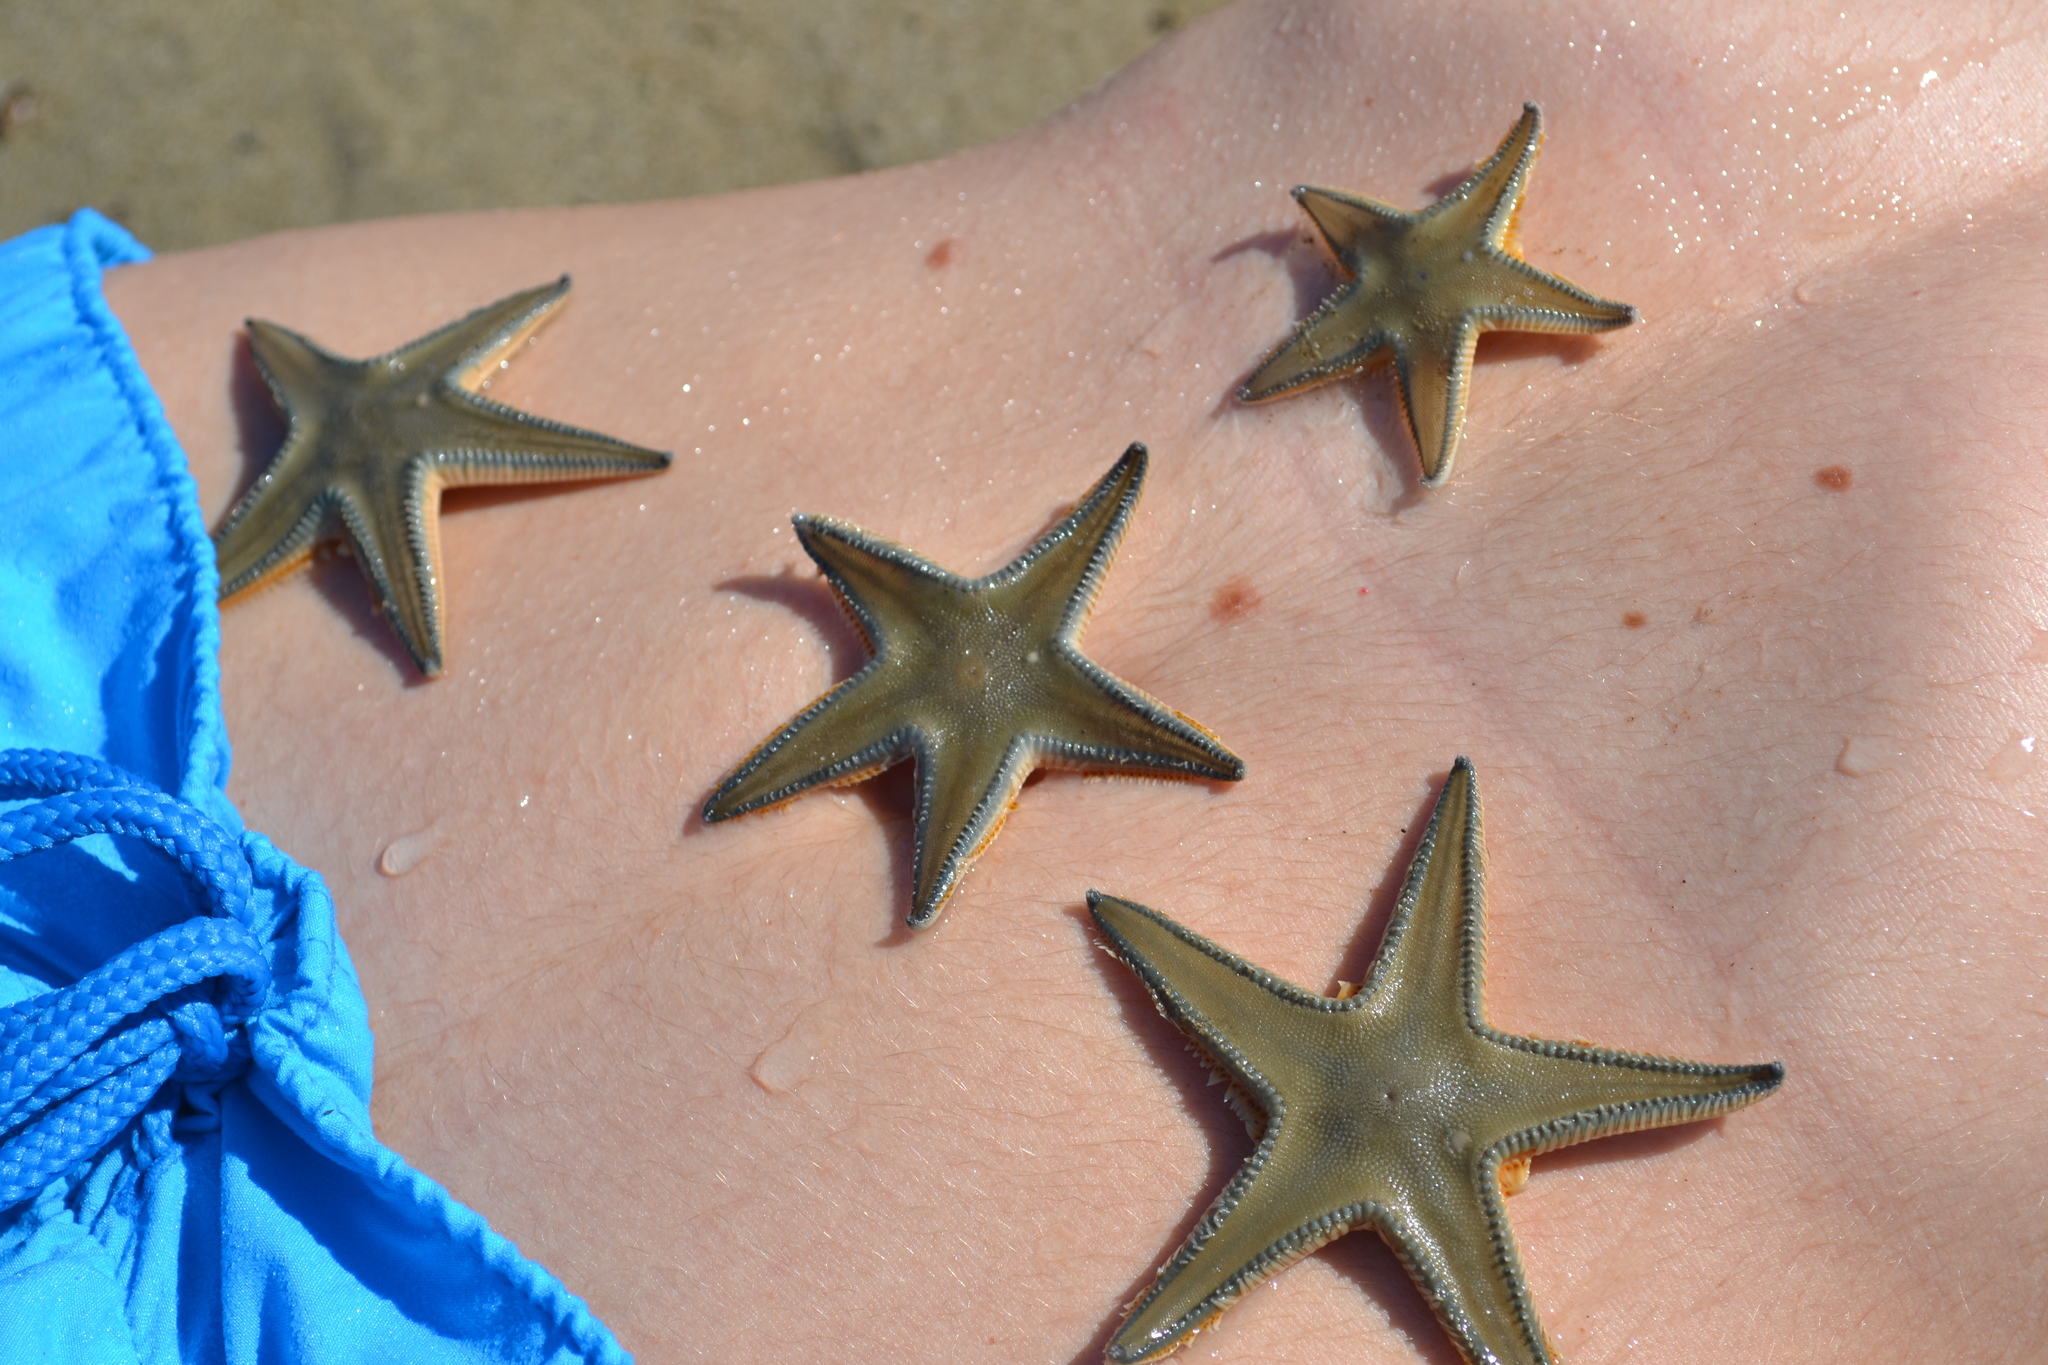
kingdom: Animalia
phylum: Echinodermata
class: Asteroidea
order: Paxillosida
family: Astropectinidae
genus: Astropecten
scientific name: Astropecten jonstoni
